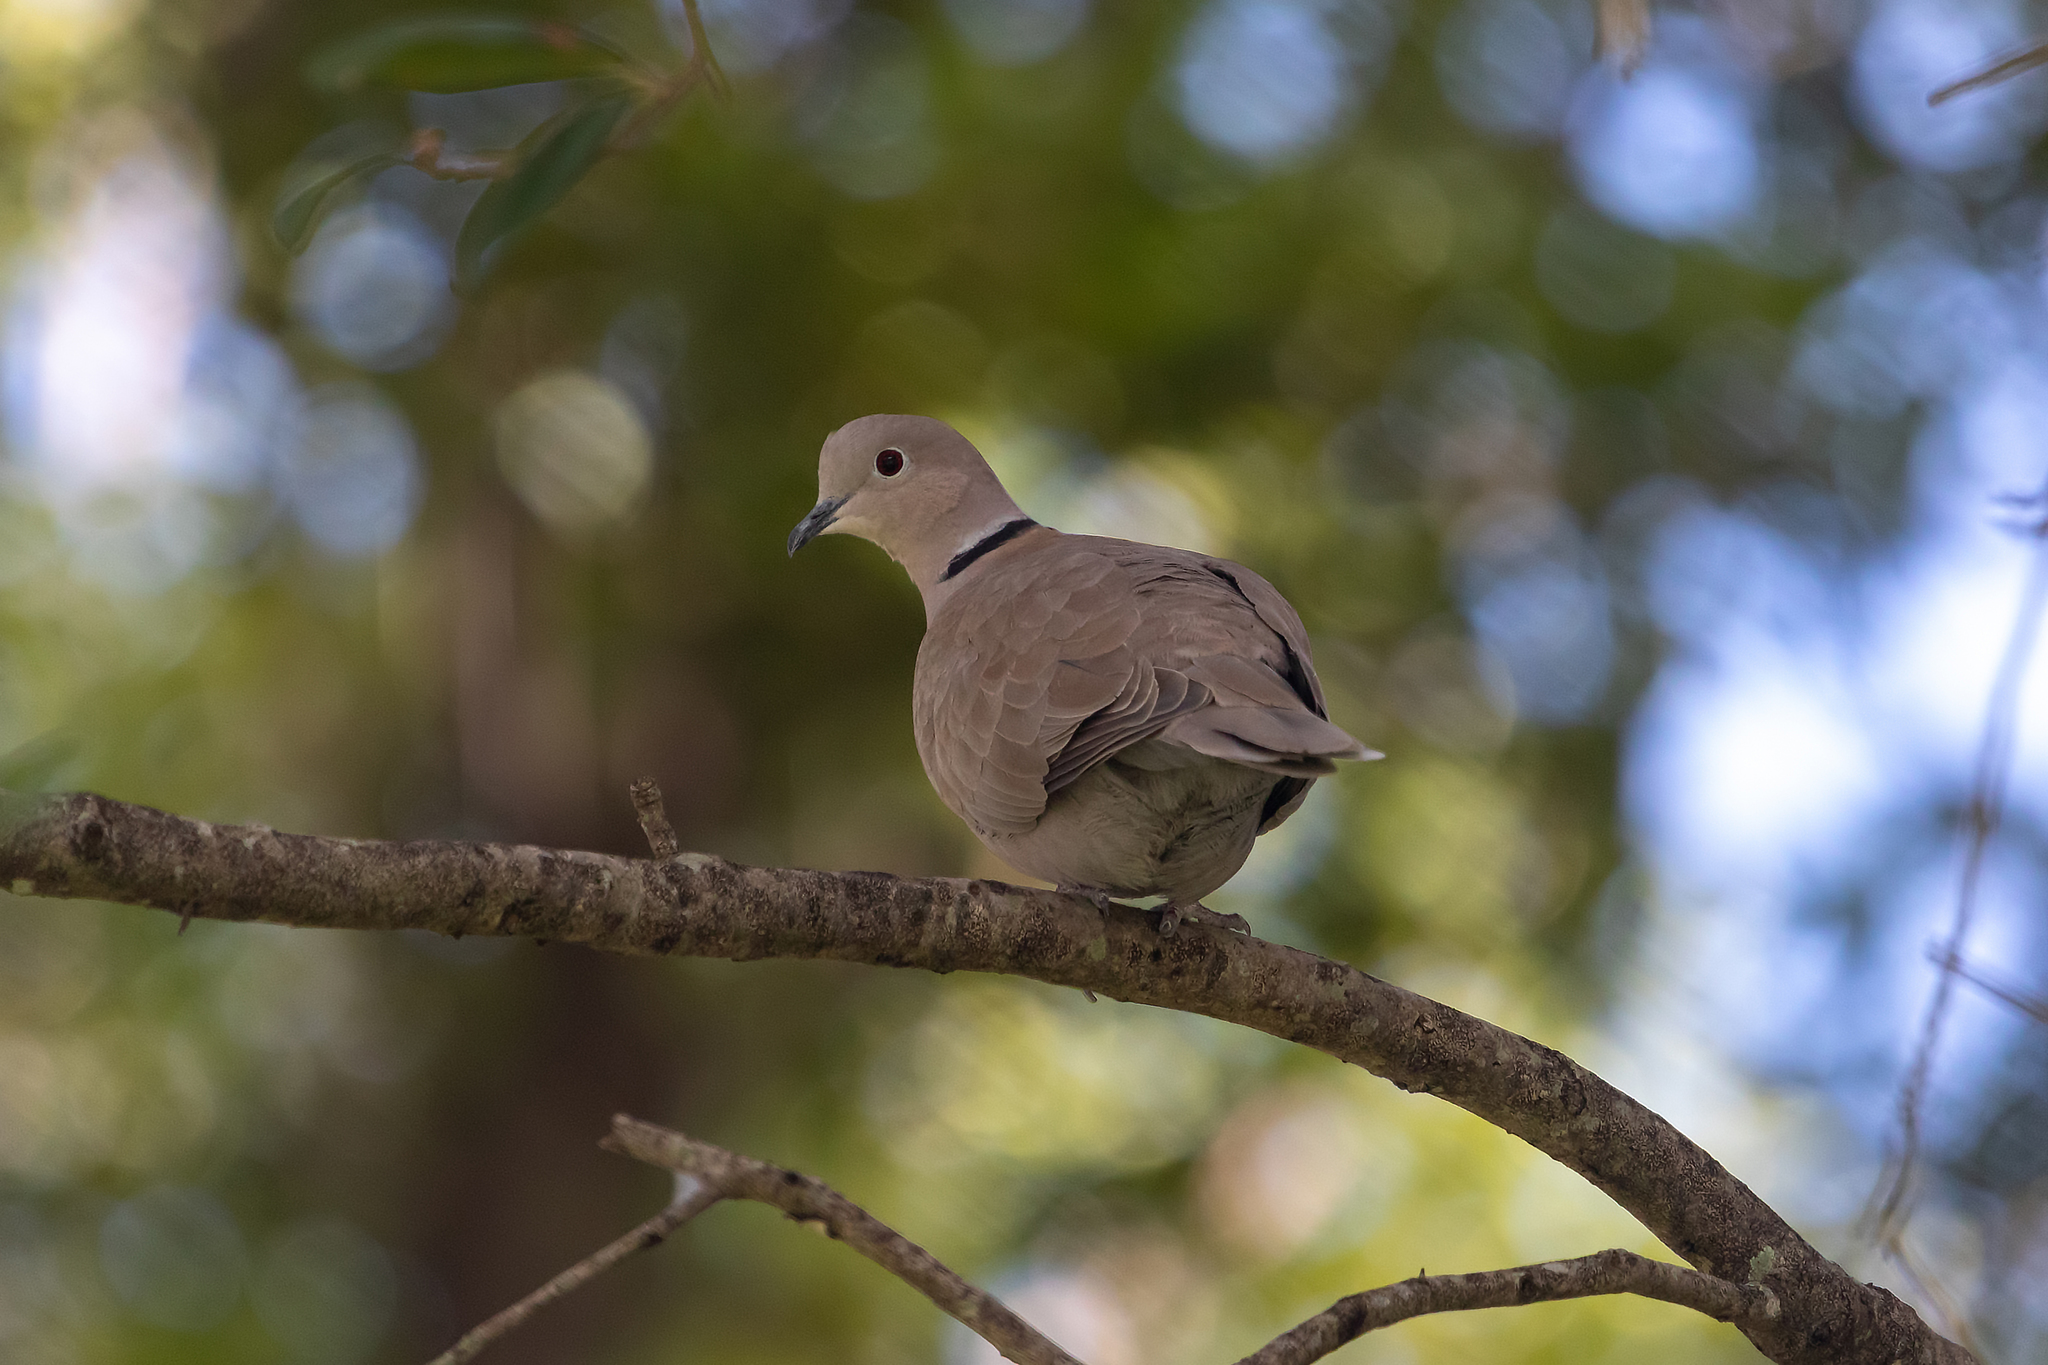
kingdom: Animalia
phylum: Chordata
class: Aves
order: Columbiformes
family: Columbidae
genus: Streptopelia
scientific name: Streptopelia decaocto
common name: Eurasian collared dove
